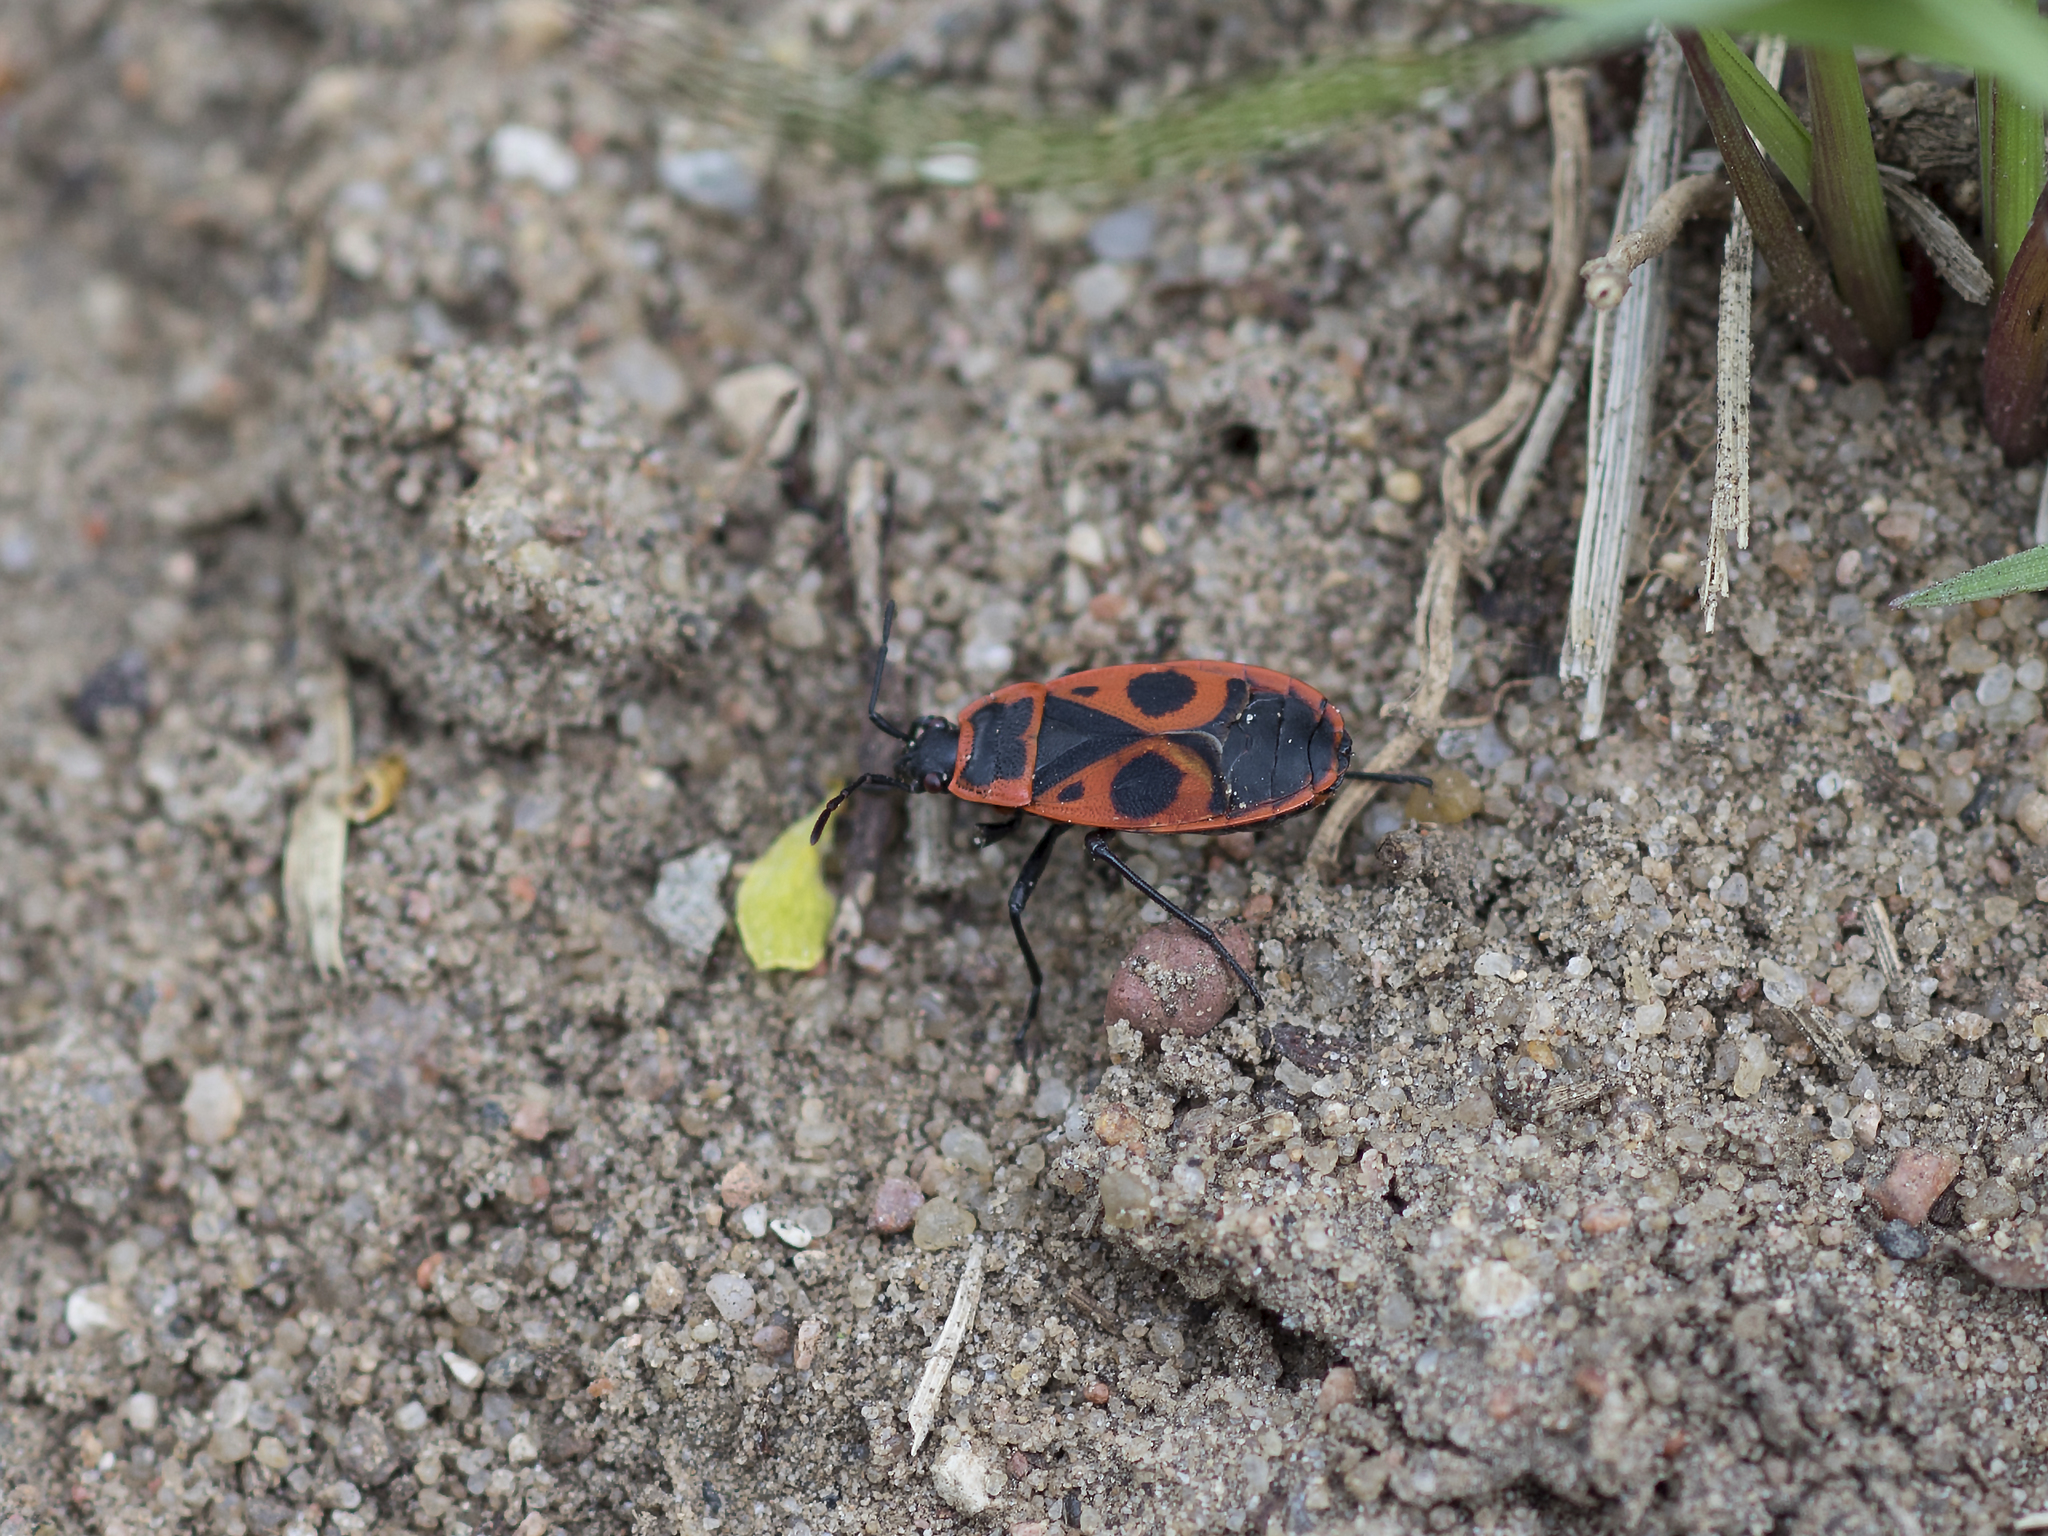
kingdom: Animalia
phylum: Arthropoda
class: Insecta
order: Hemiptera
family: Pyrrhocoridae
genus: Pyrrhocoris
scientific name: Pyrrhocoris apterus
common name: Firebug
